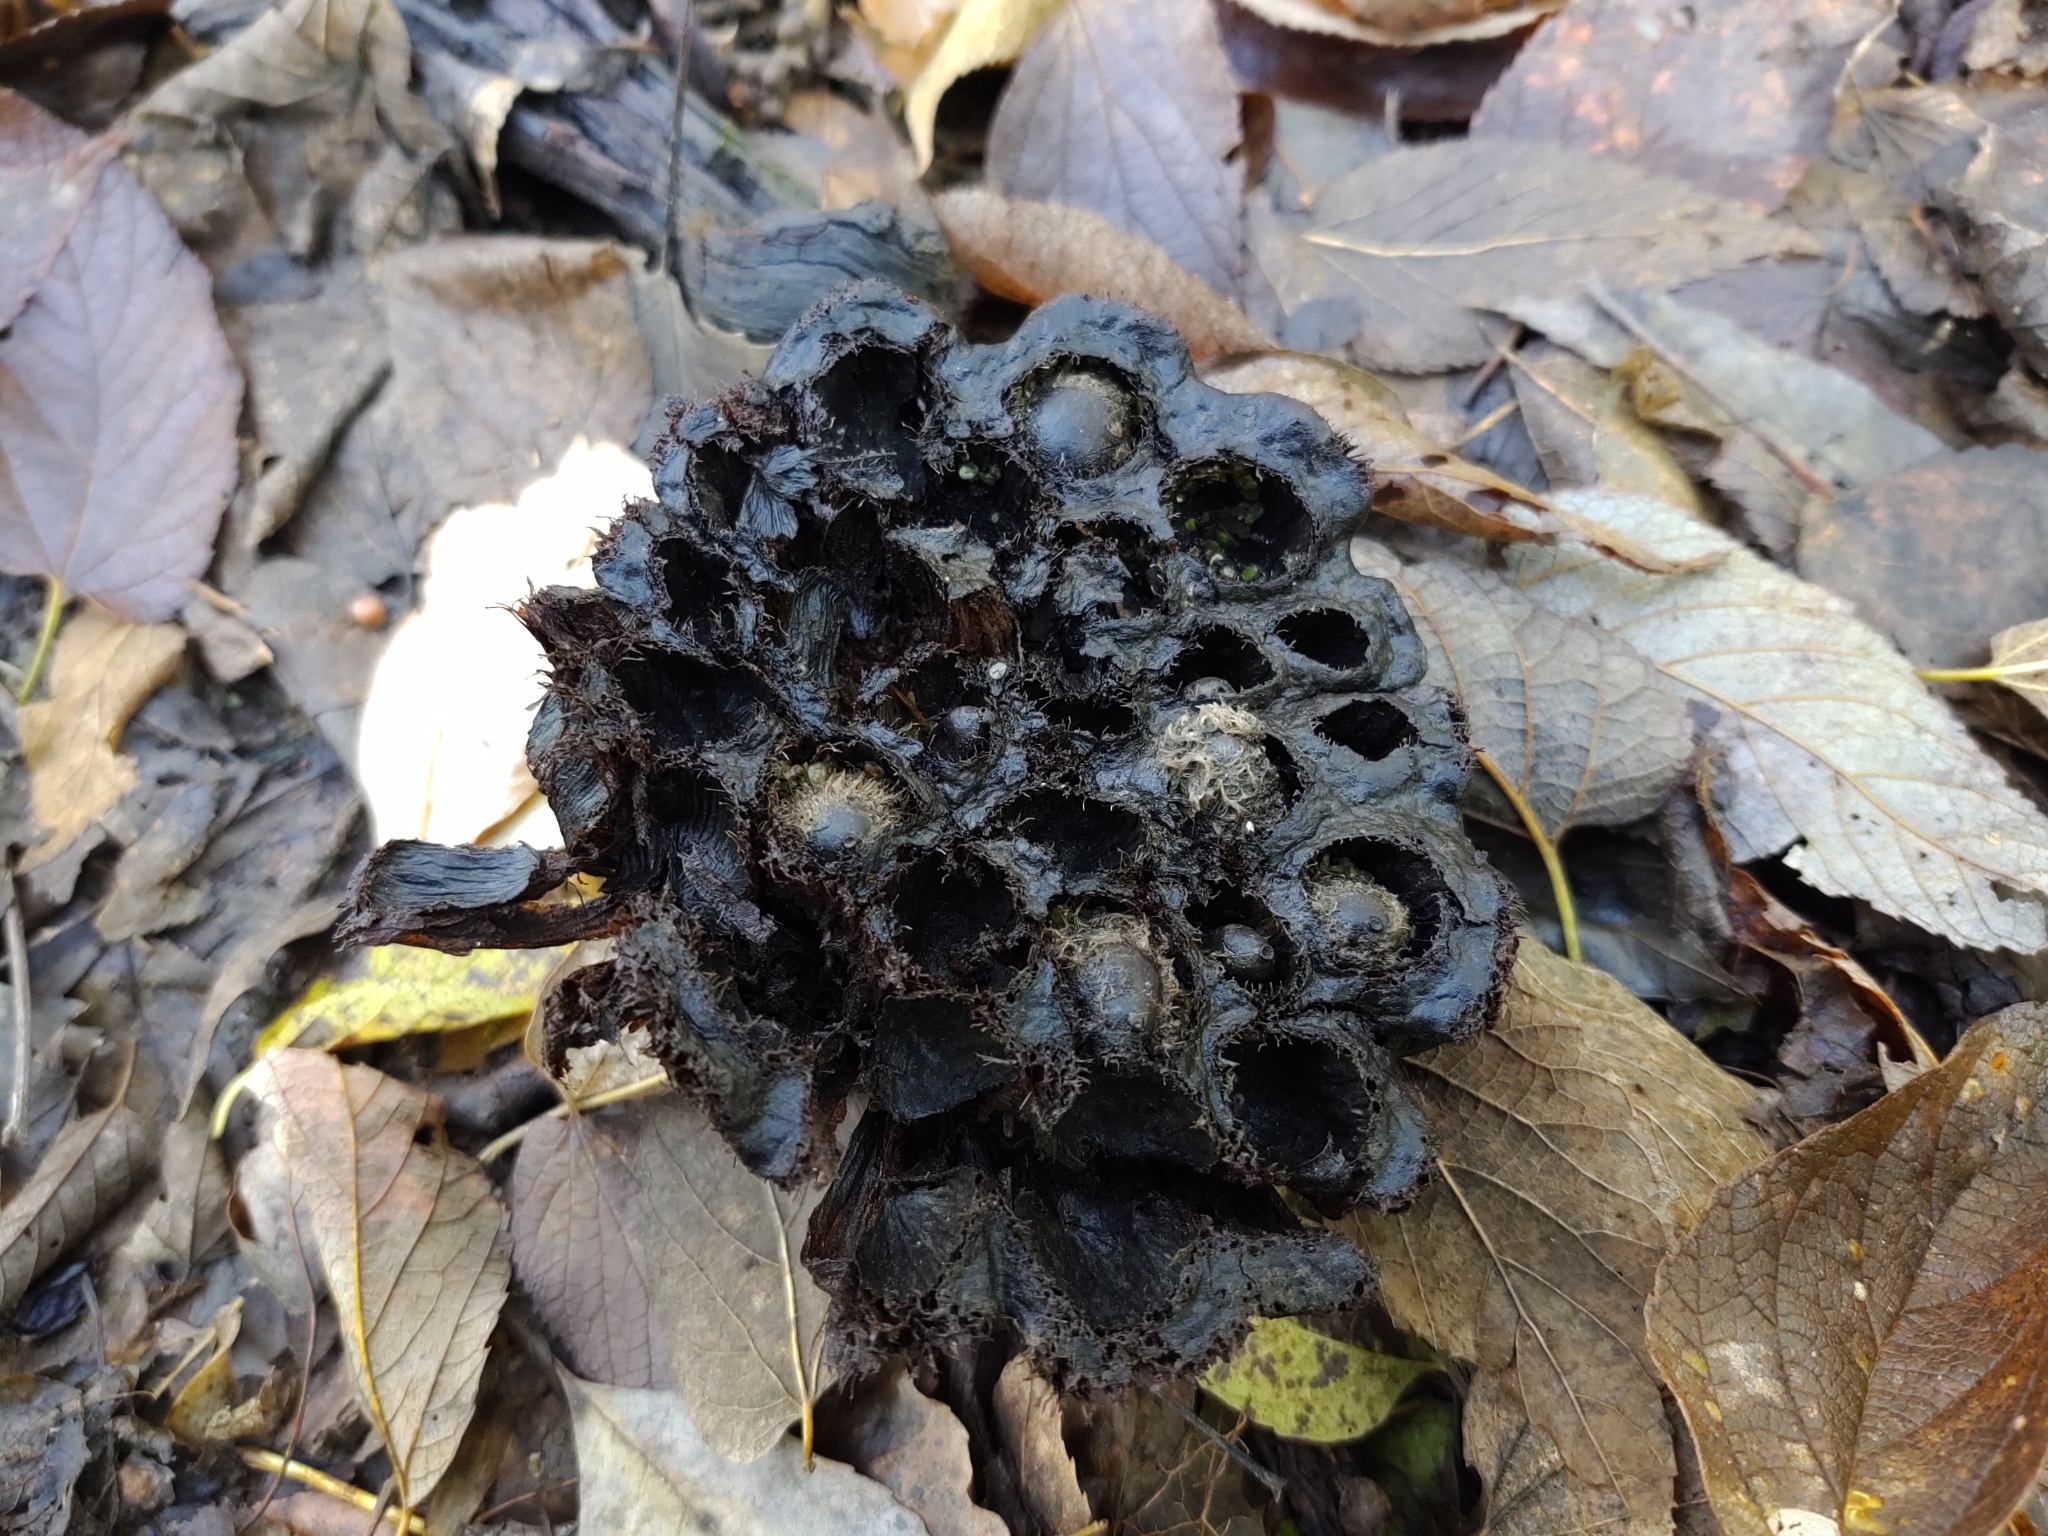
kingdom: Plantae
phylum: Tracheophyta
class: Magnoliopsida
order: Proteales
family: Nelumbonaceae
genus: Nelumbo
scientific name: Nelumbo lutea
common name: American lotus
